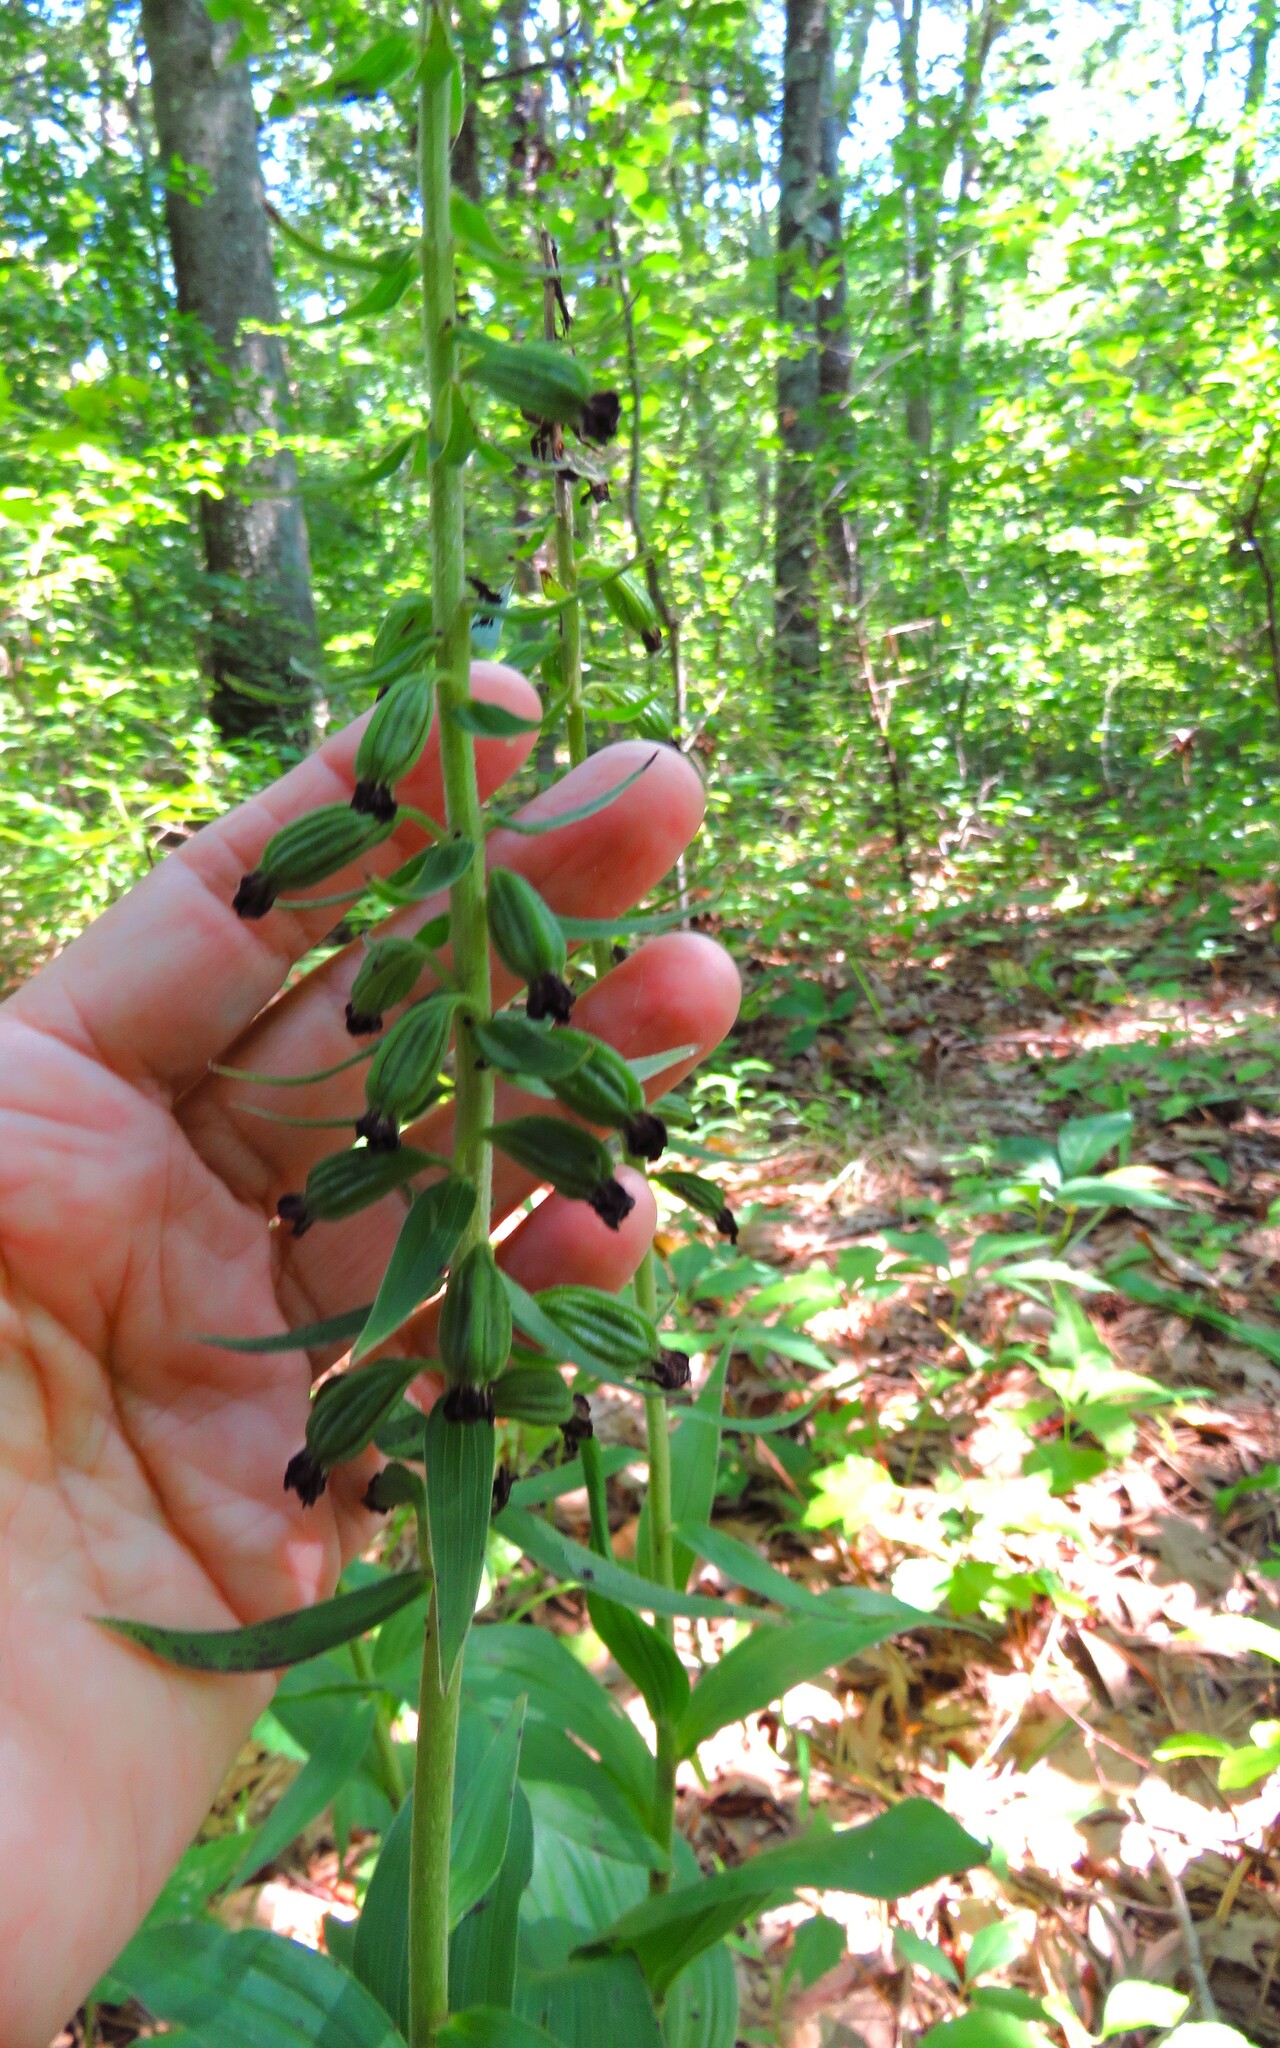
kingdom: Plantae
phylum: Tracheophyta
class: Liliopsida
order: Asparagales
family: Orchidaceae
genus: Epipactis
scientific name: Epipactis helleborine
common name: Broad-leaved helleborine
